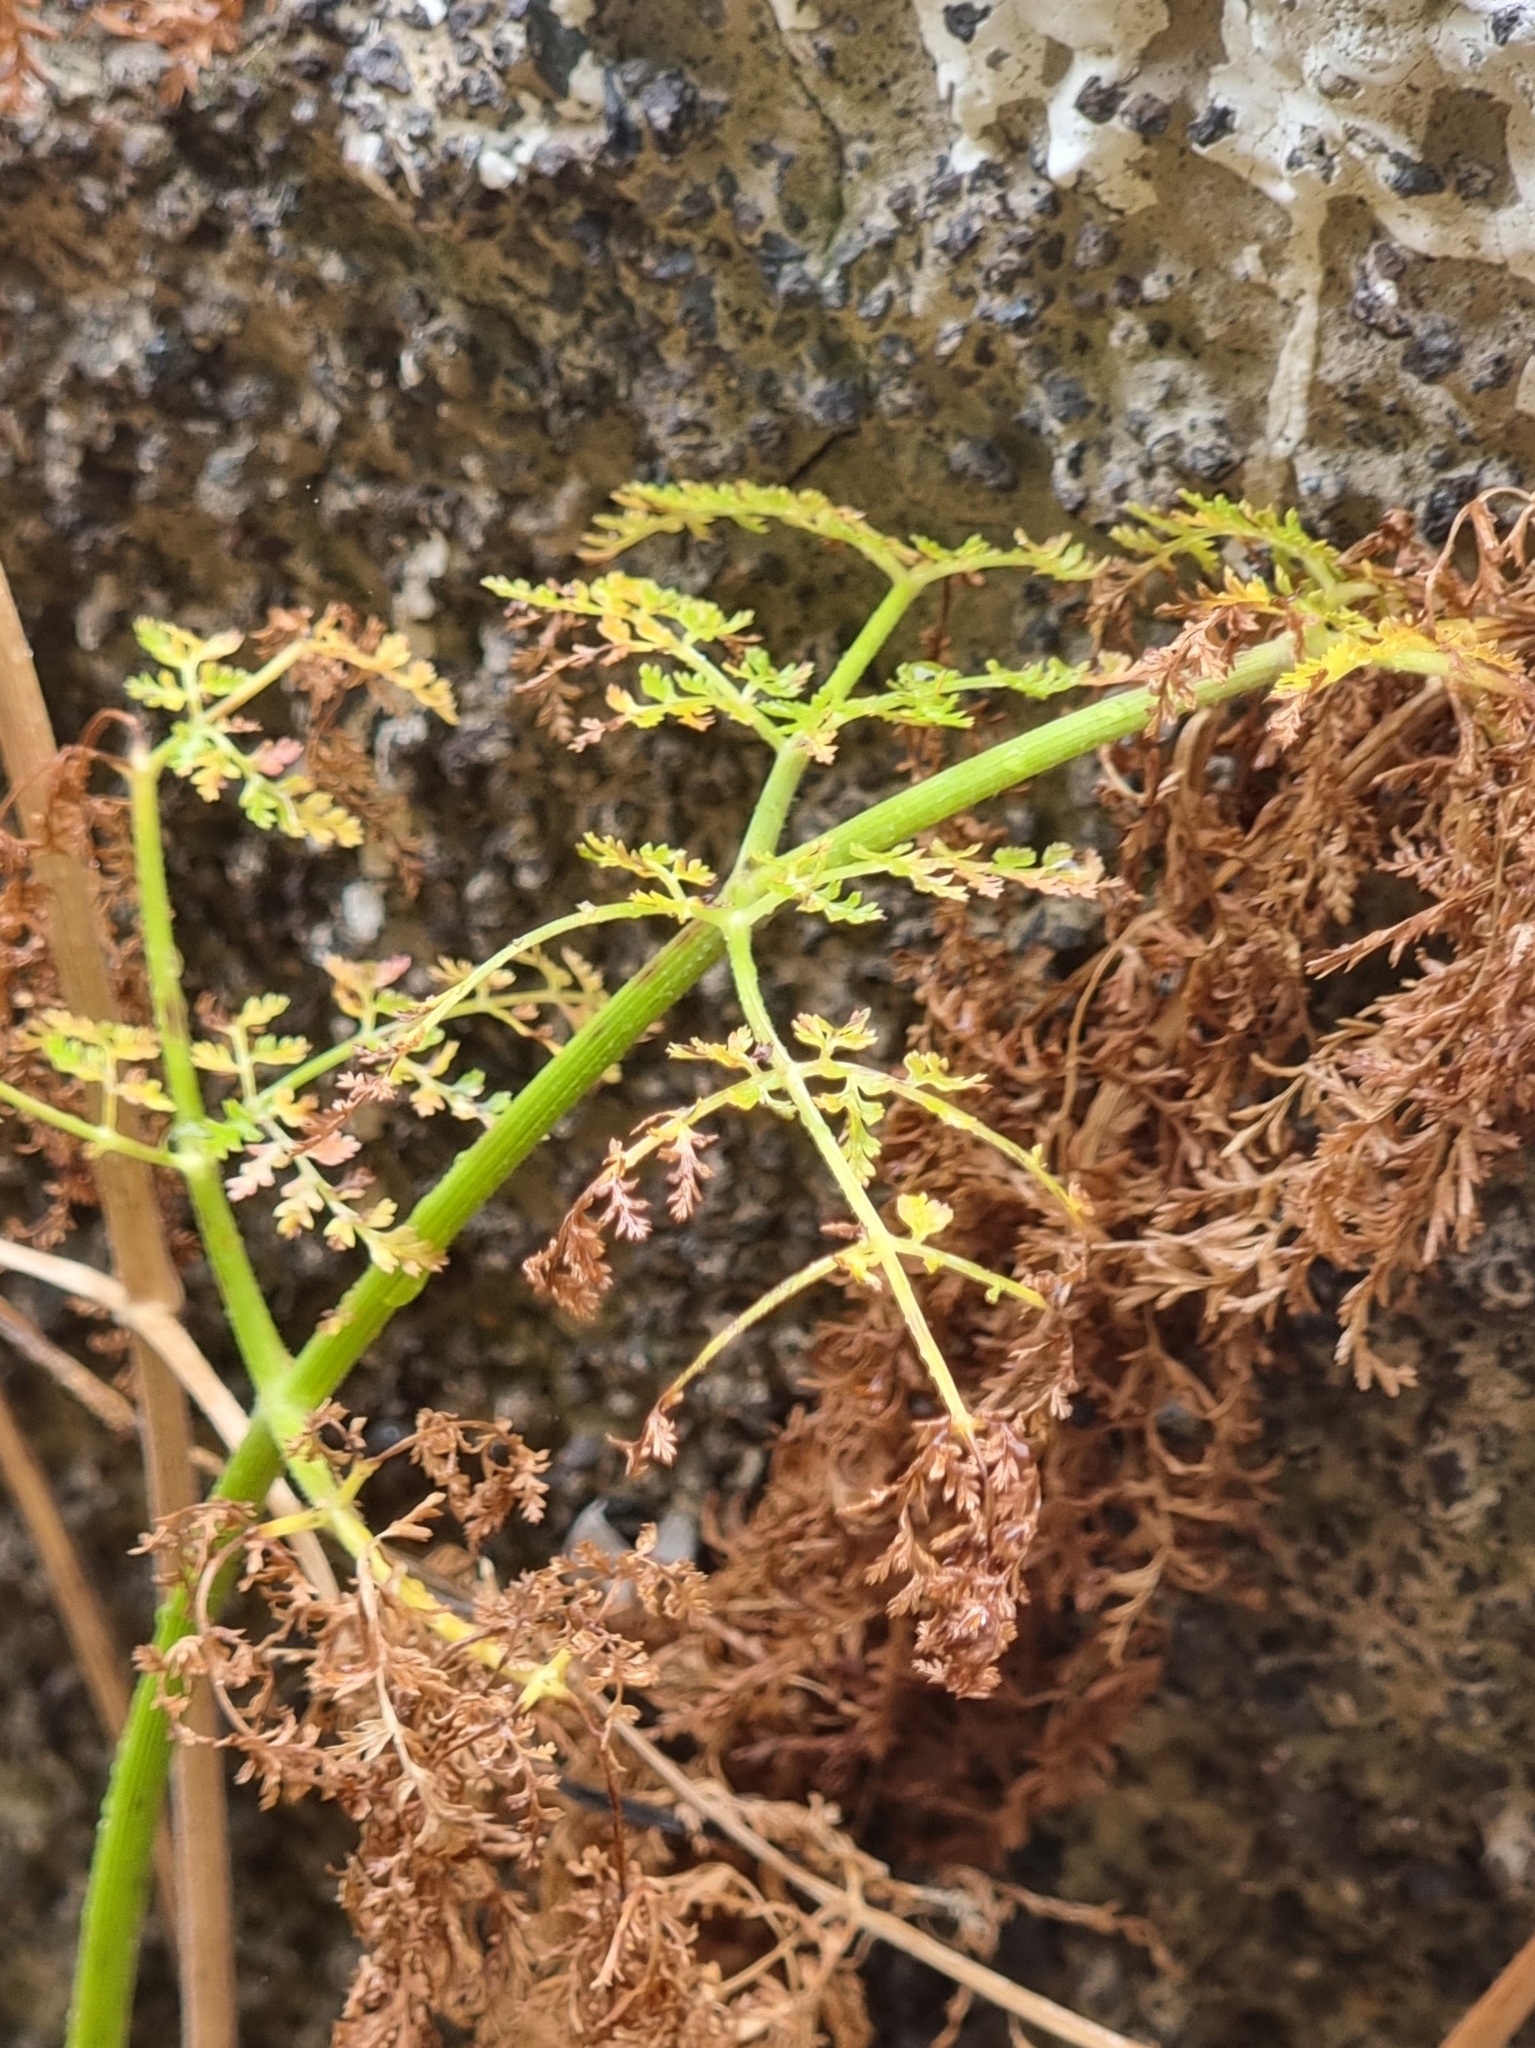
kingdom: Plantae
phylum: Tracheophyta
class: Magnoliopsida
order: Apiales
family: Apiaceae
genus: Daucus
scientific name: Daucus edulis
